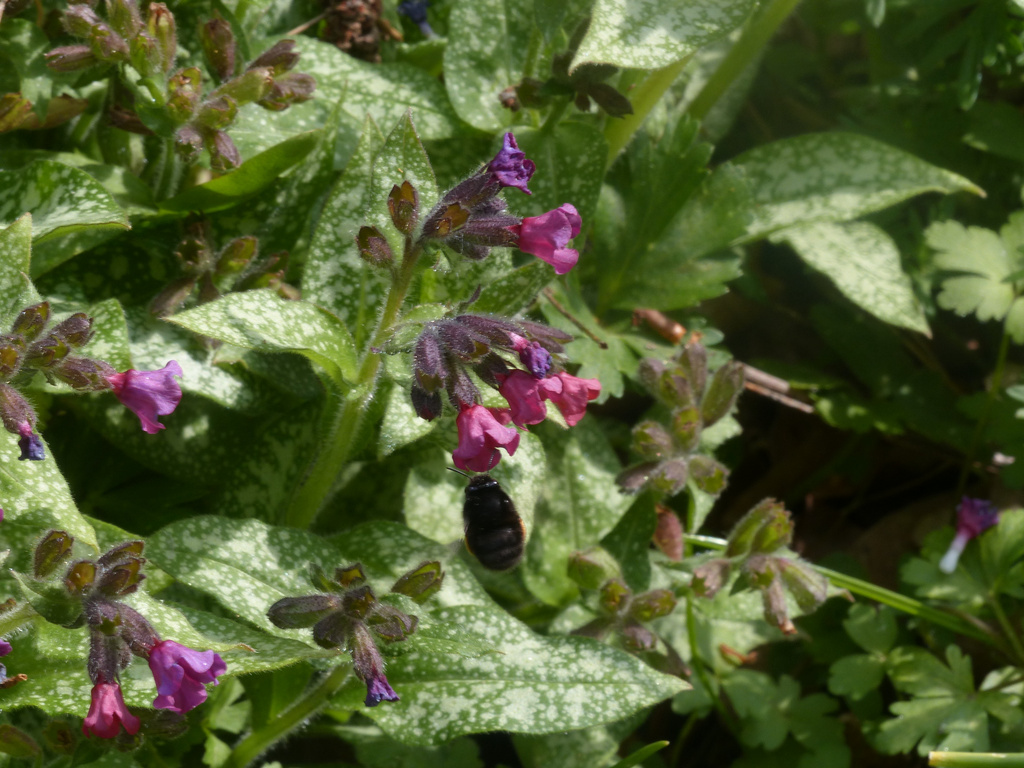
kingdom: Animalia
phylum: Arthropoda
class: Insecta
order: Hymenoptera
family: Apidae
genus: Anthophora
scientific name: Anthophora plumipes
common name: Hairy-footed flower bee
